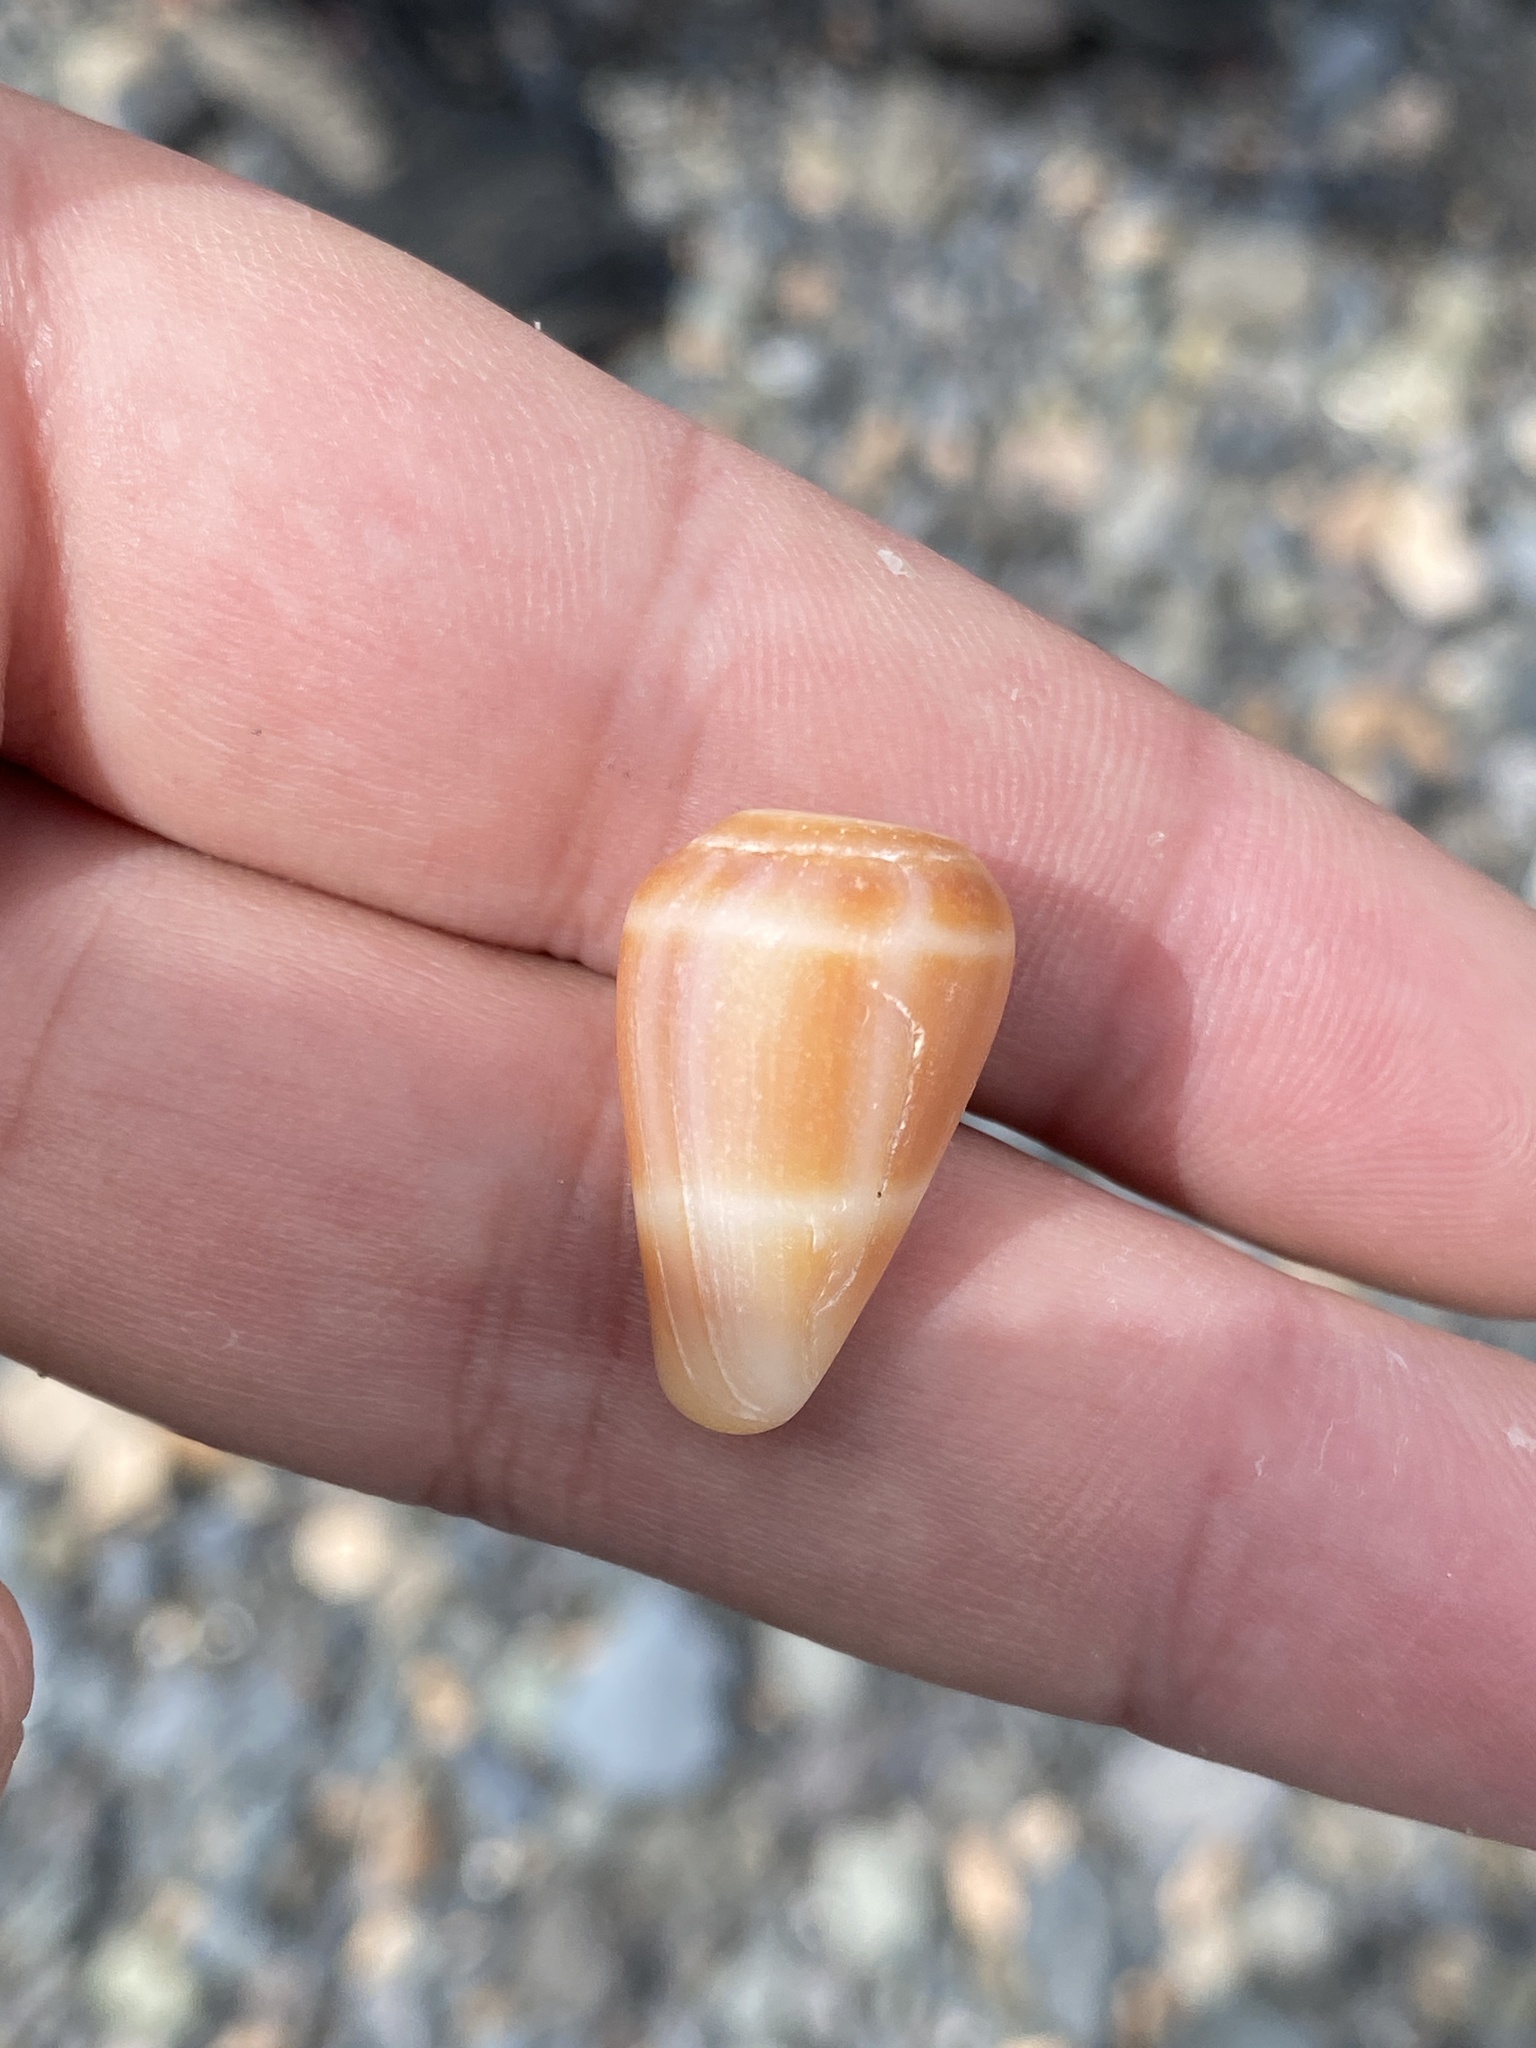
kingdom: Animalia
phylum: Mollusca
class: Gastropoda
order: Neogastropoda
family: Conidae
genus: Conus
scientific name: Conus guanche
